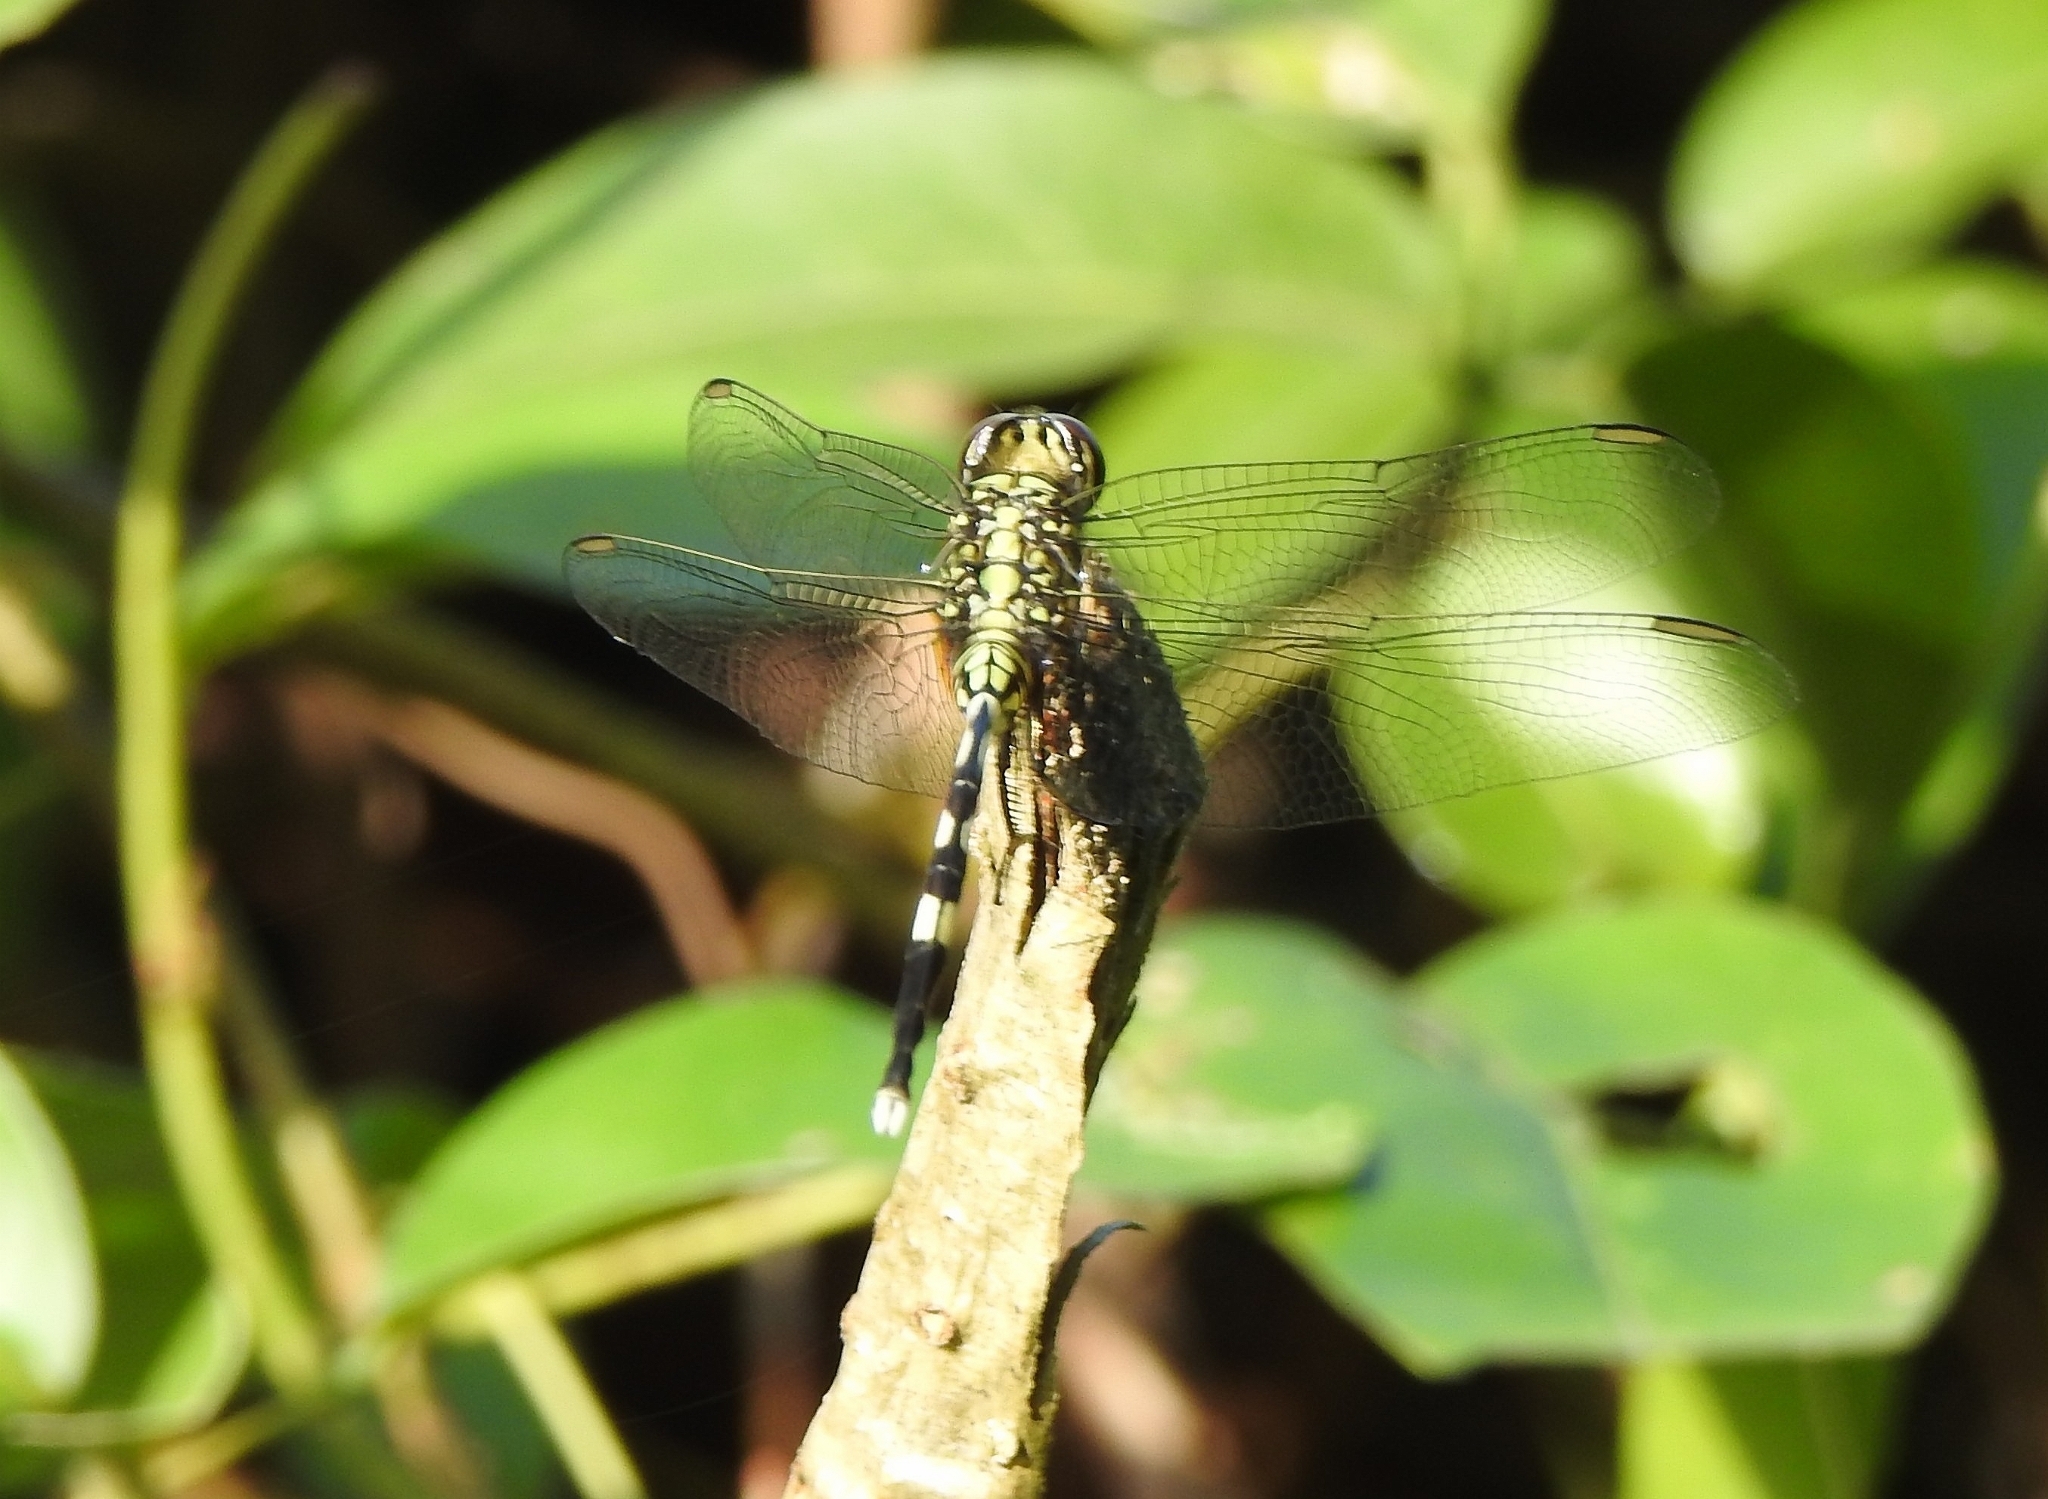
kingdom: Animalia
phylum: Arthropoda
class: Insecta
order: Odonata
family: Libellulidae
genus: Orthetrum
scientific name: Orthetrum sabina
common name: Slender skimmer
